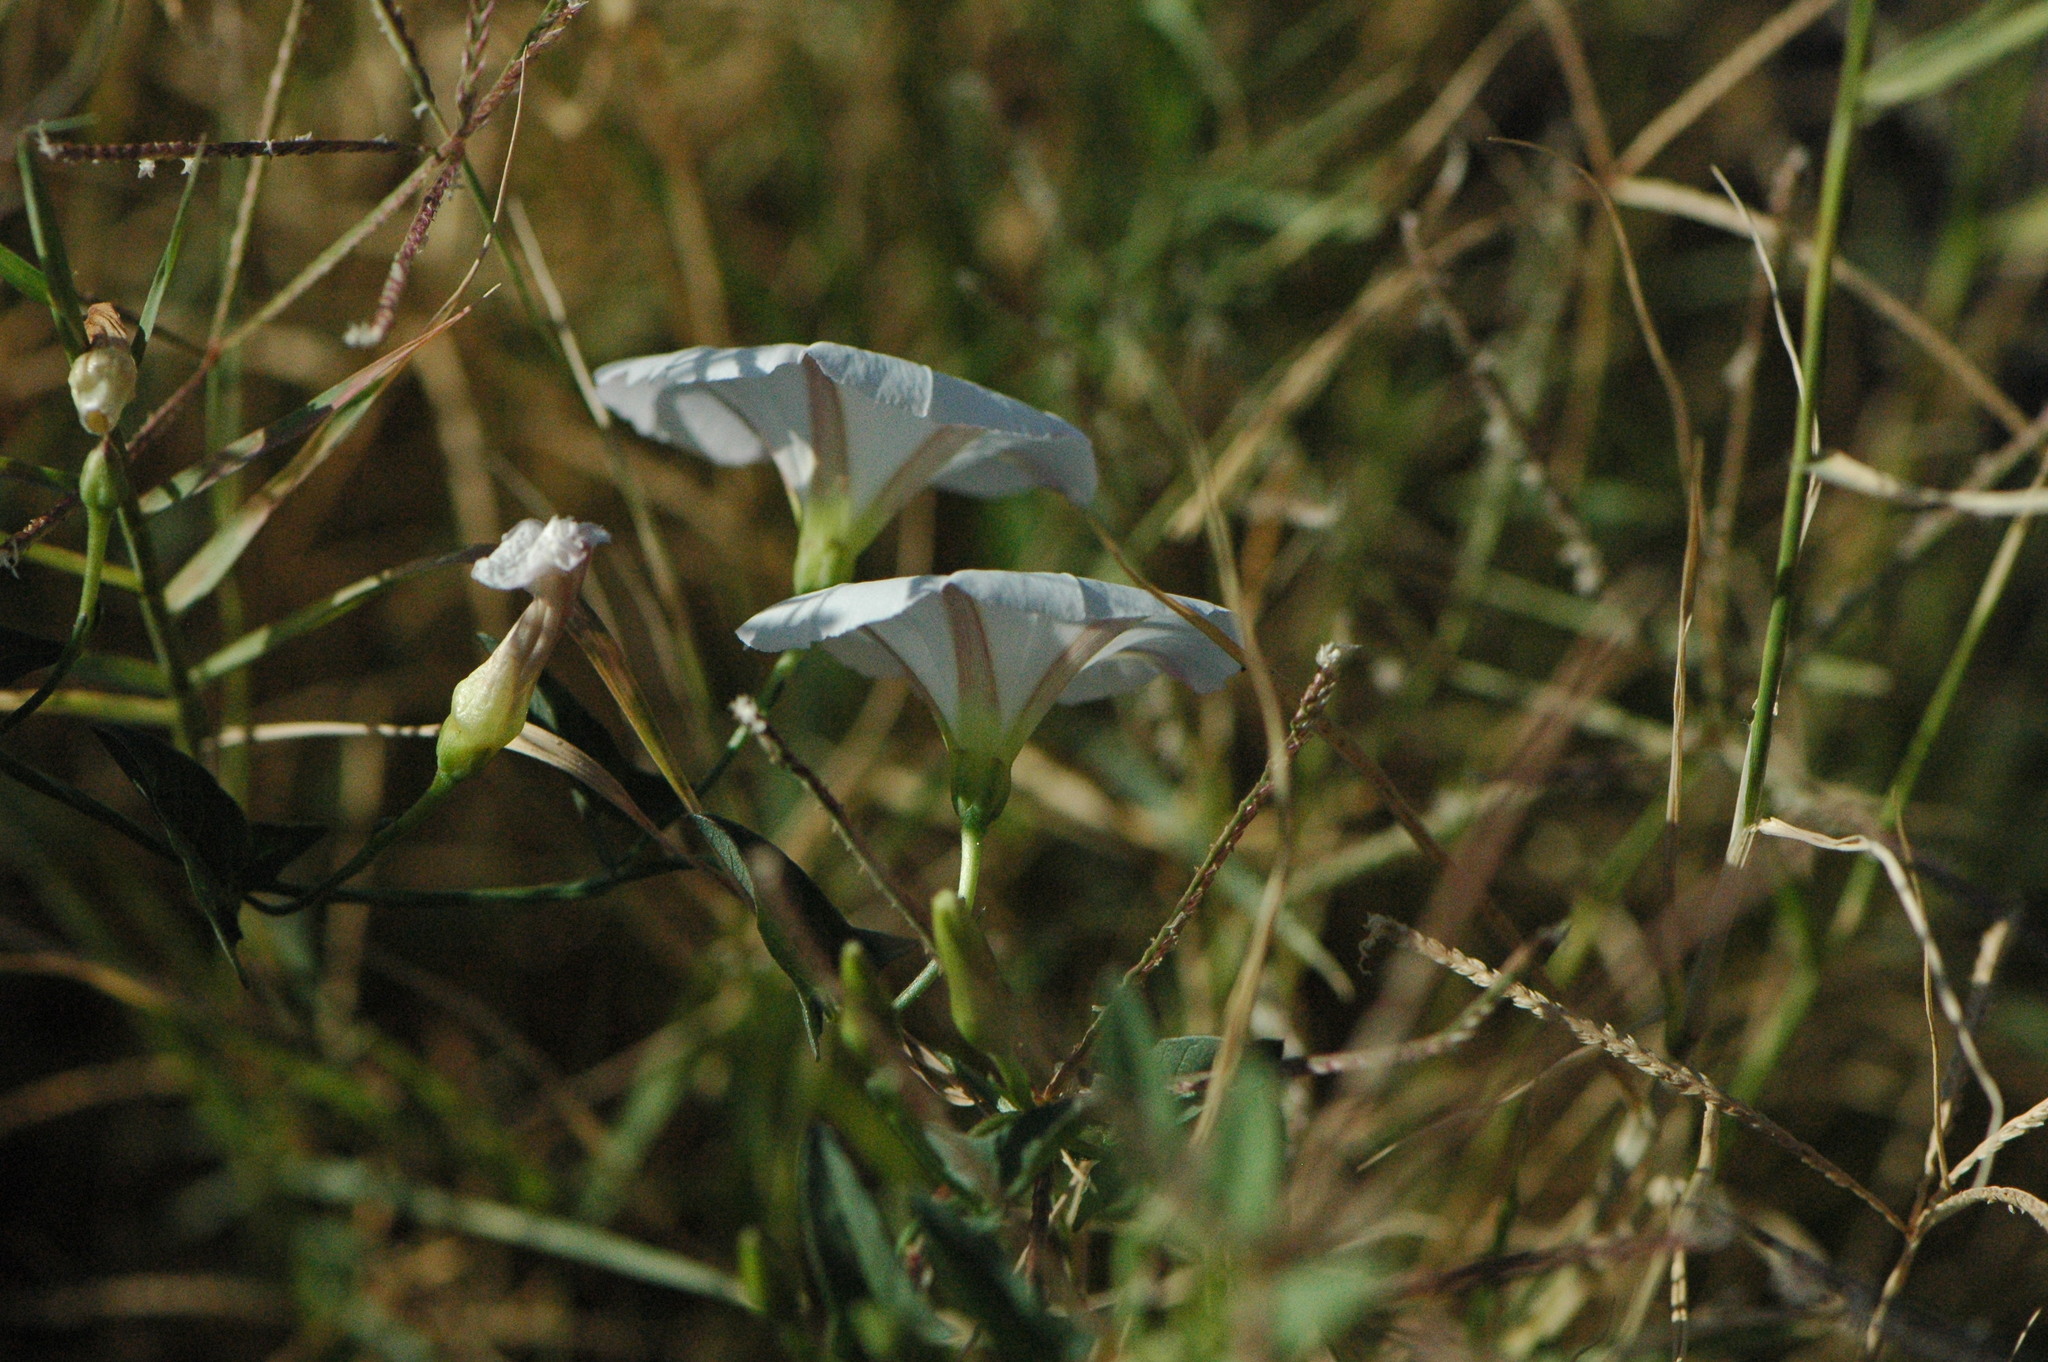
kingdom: Plantae
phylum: Tracheophyta
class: Magnoliopsida
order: Solanales
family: Convolvulaceae
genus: Convolvulus
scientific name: Convolvulus arvensis
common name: Field bindweed
